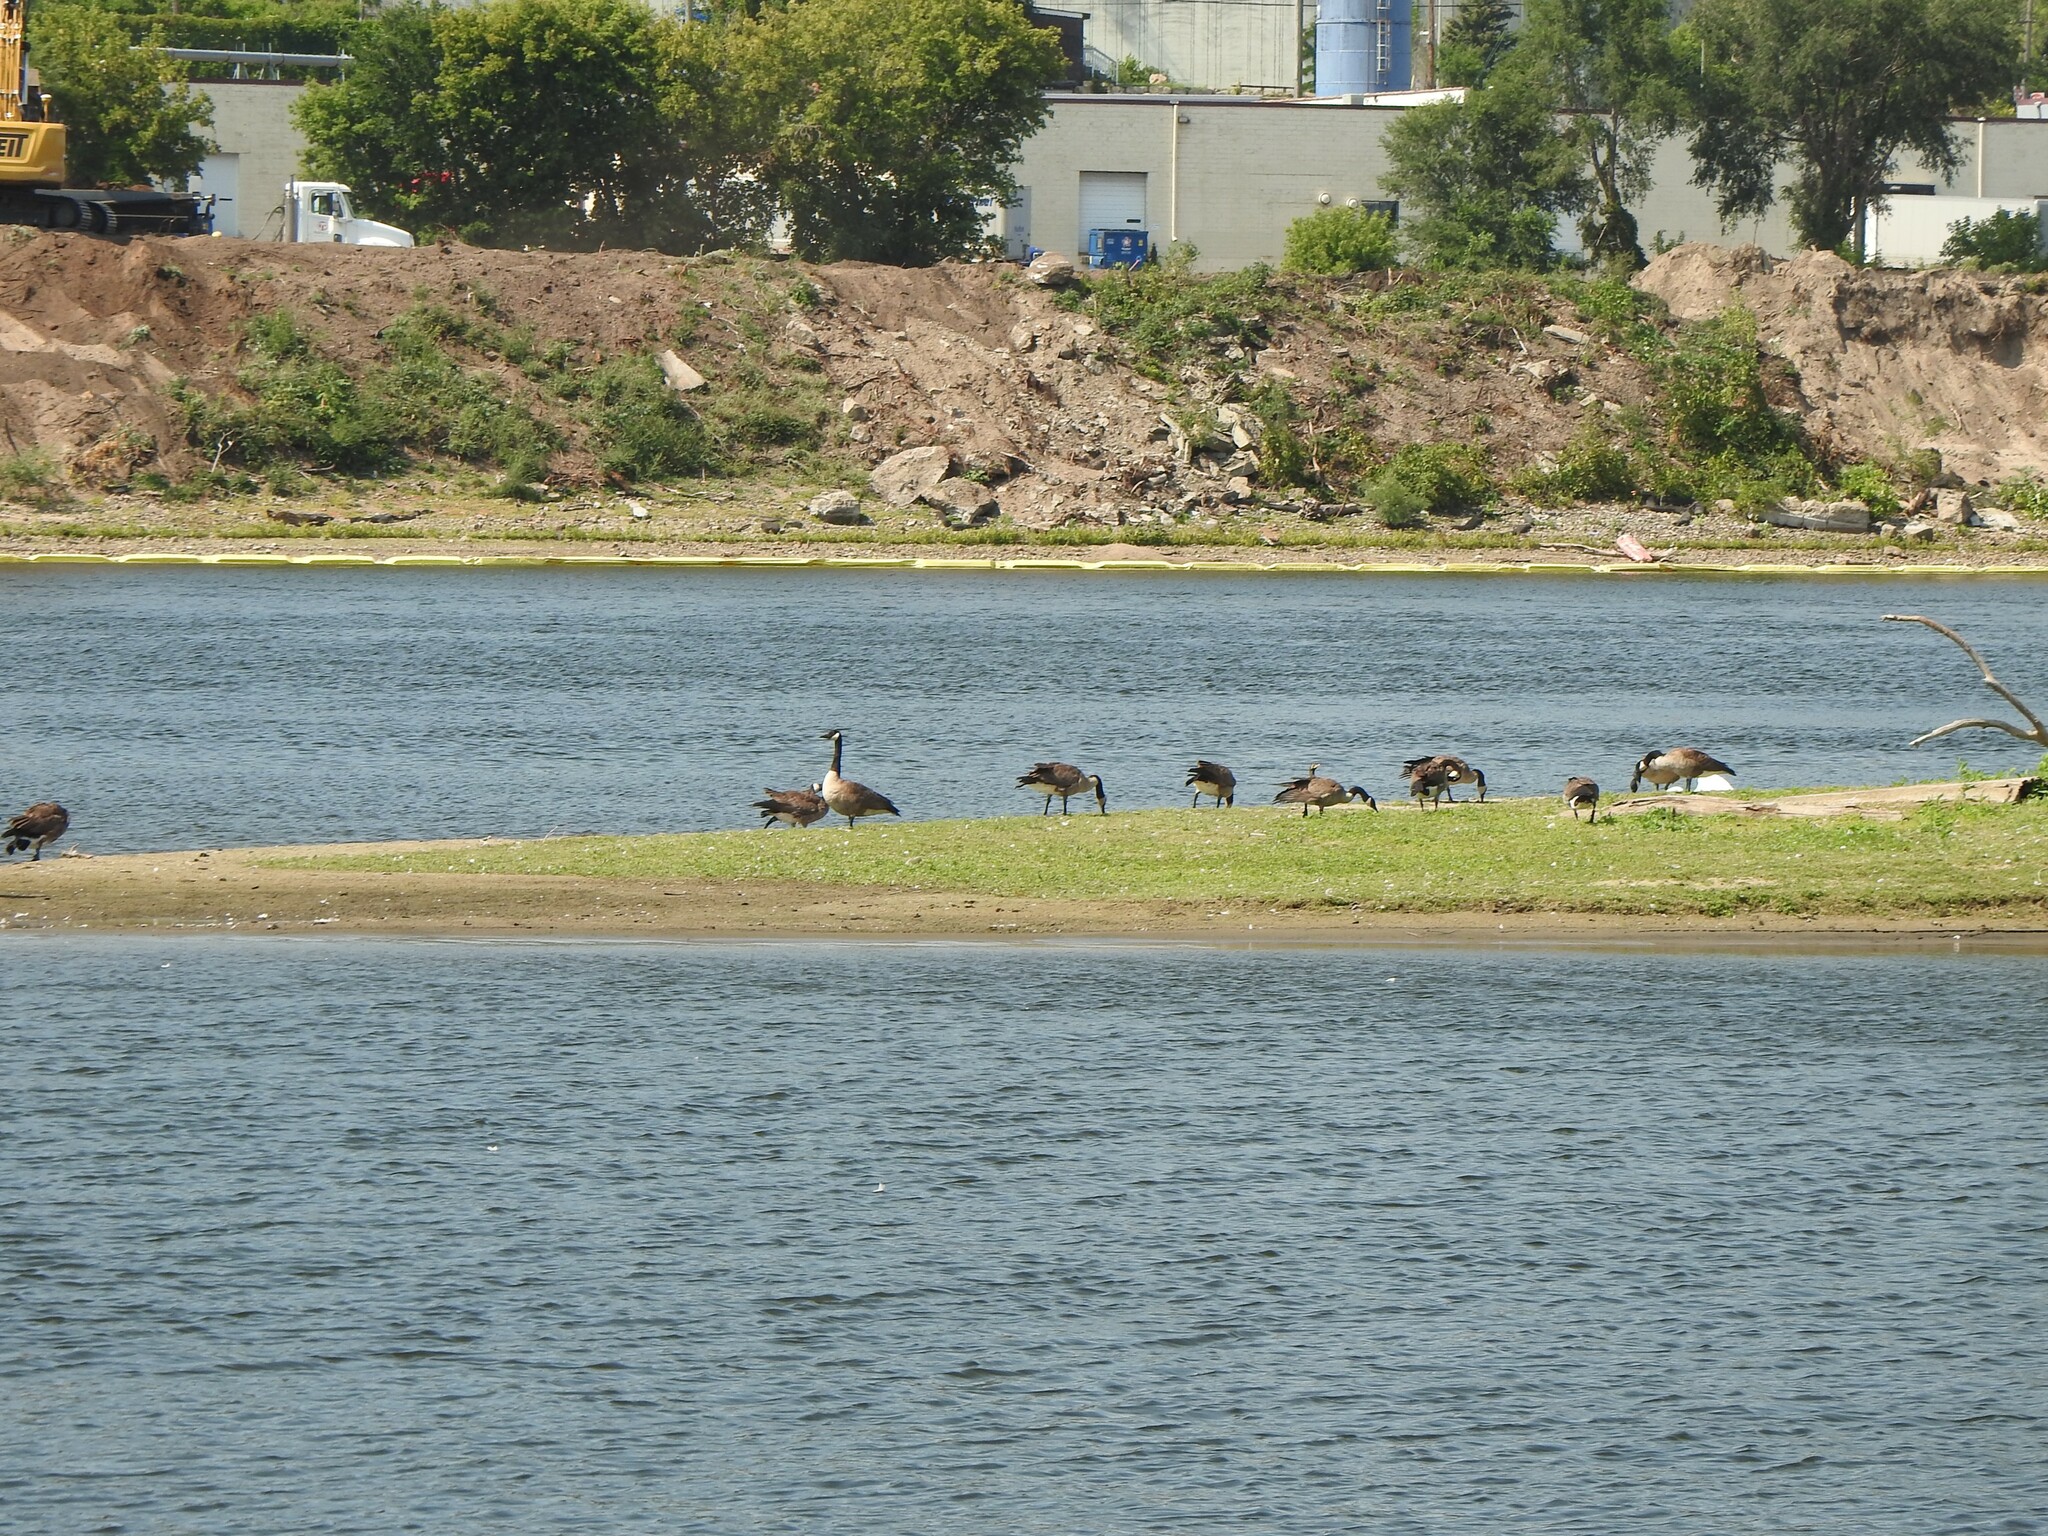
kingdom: Animalia
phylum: Chordata
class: Aves
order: Anseriformes
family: Anatidae
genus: Branta
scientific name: Branta canadensis
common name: Canada goose
